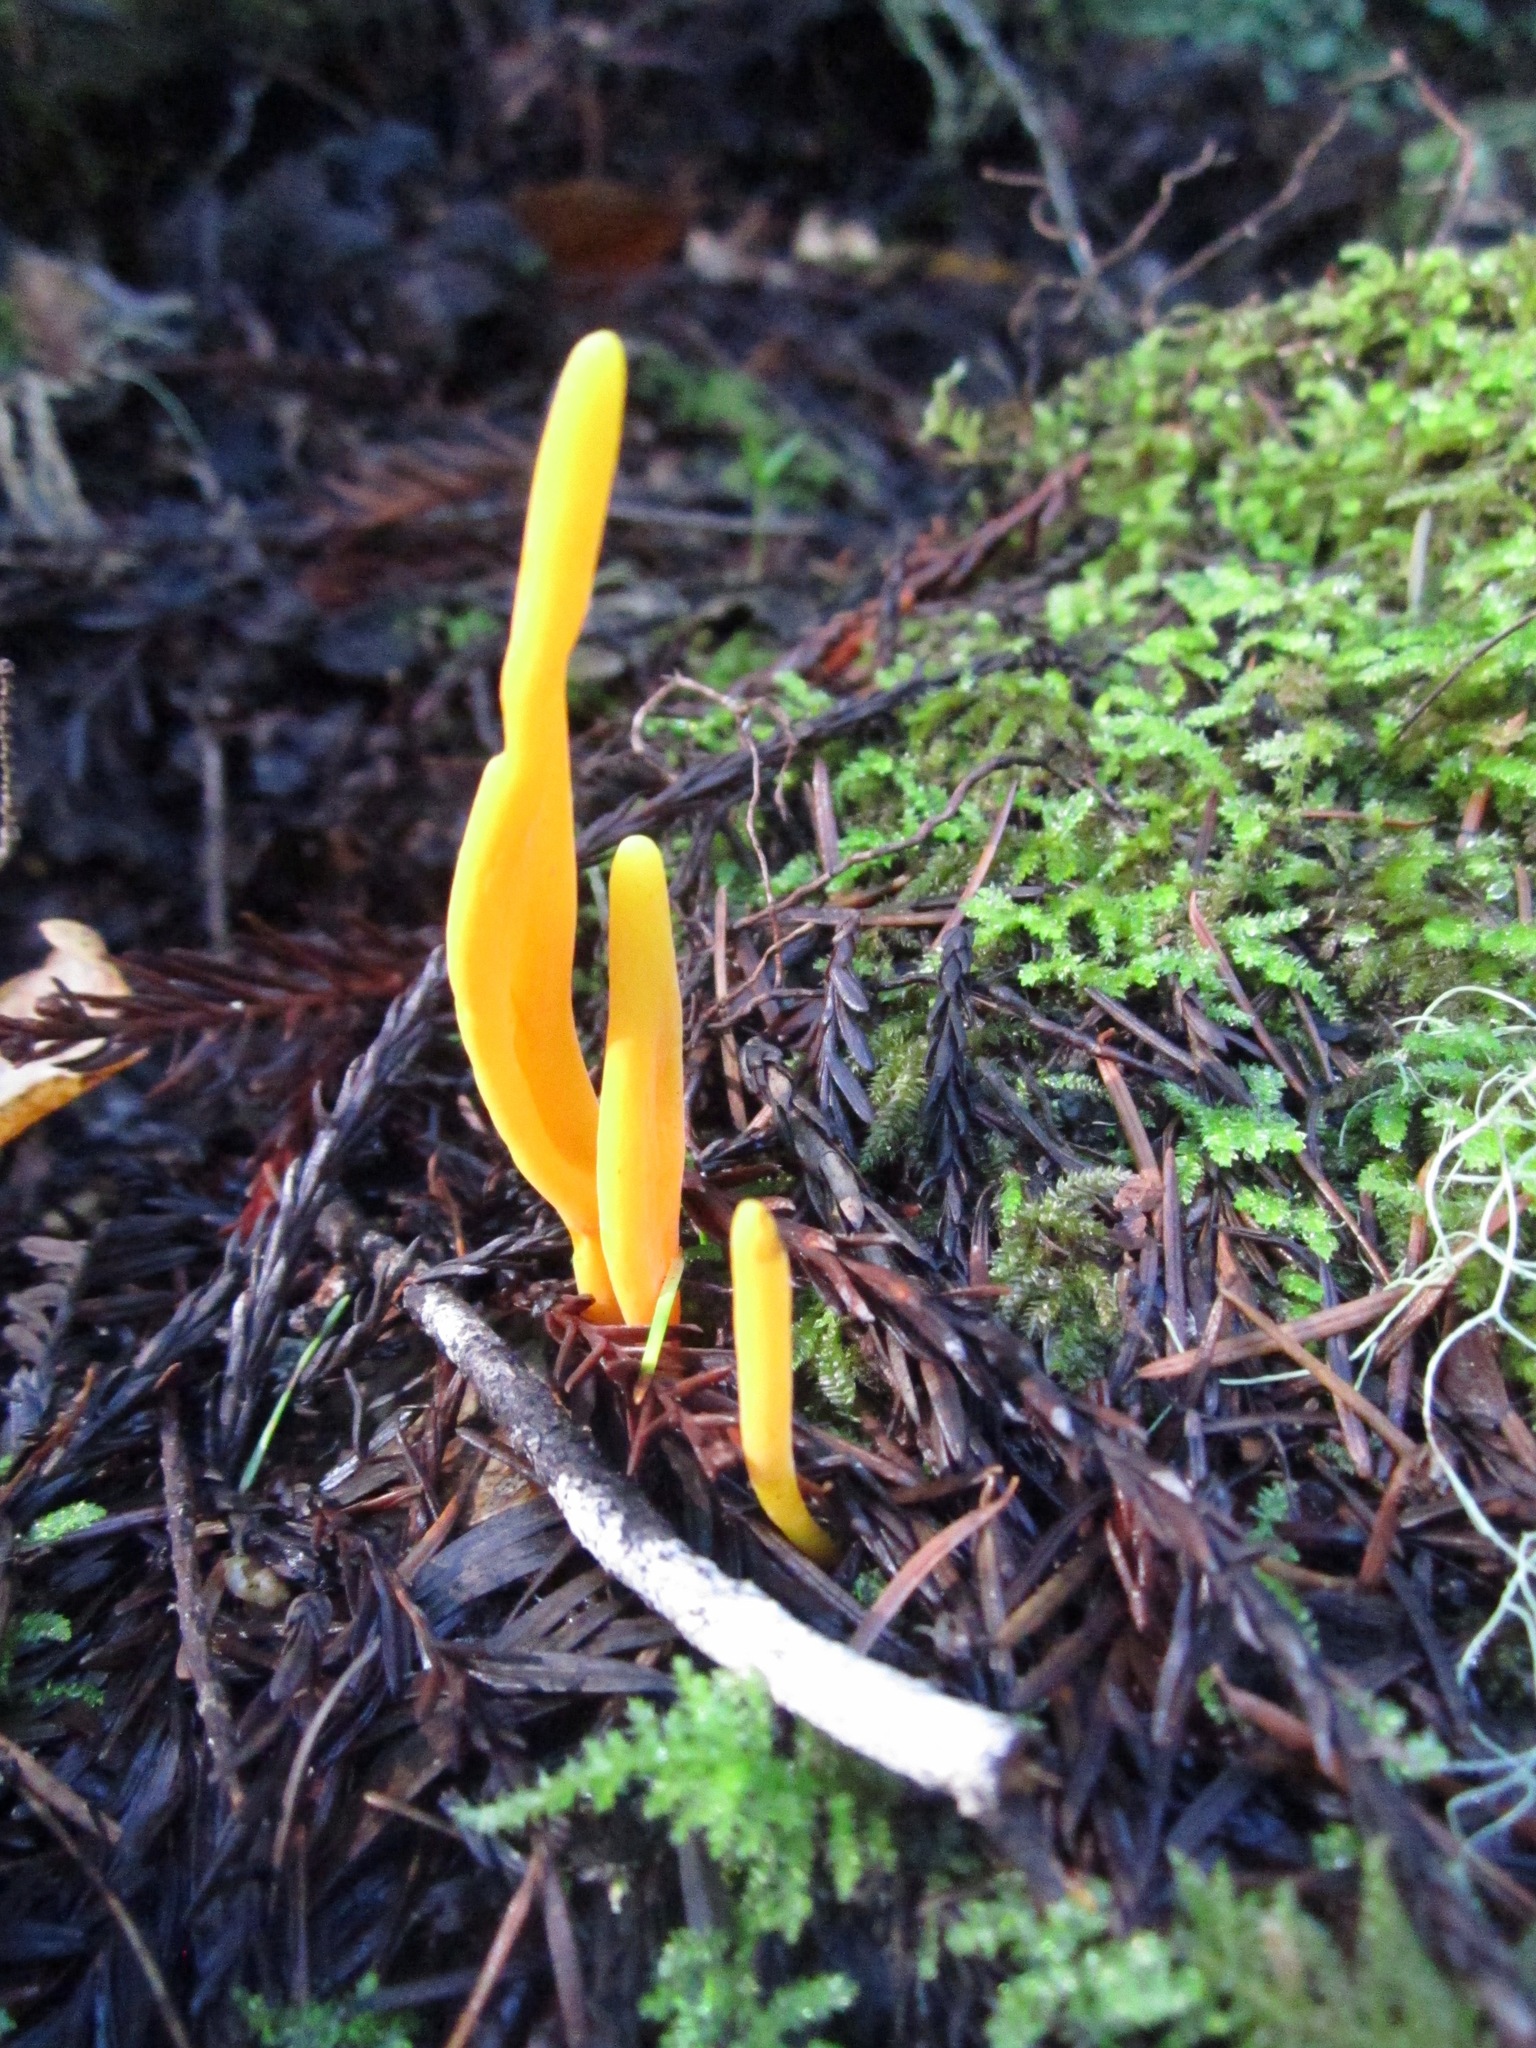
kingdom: Fungi
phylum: Basidiomycota
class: Agaricomycetes
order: Agaricales
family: Clavariaceae
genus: Clavulinopsis
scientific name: Clavulinopsis laeticolor
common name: Handsome club
